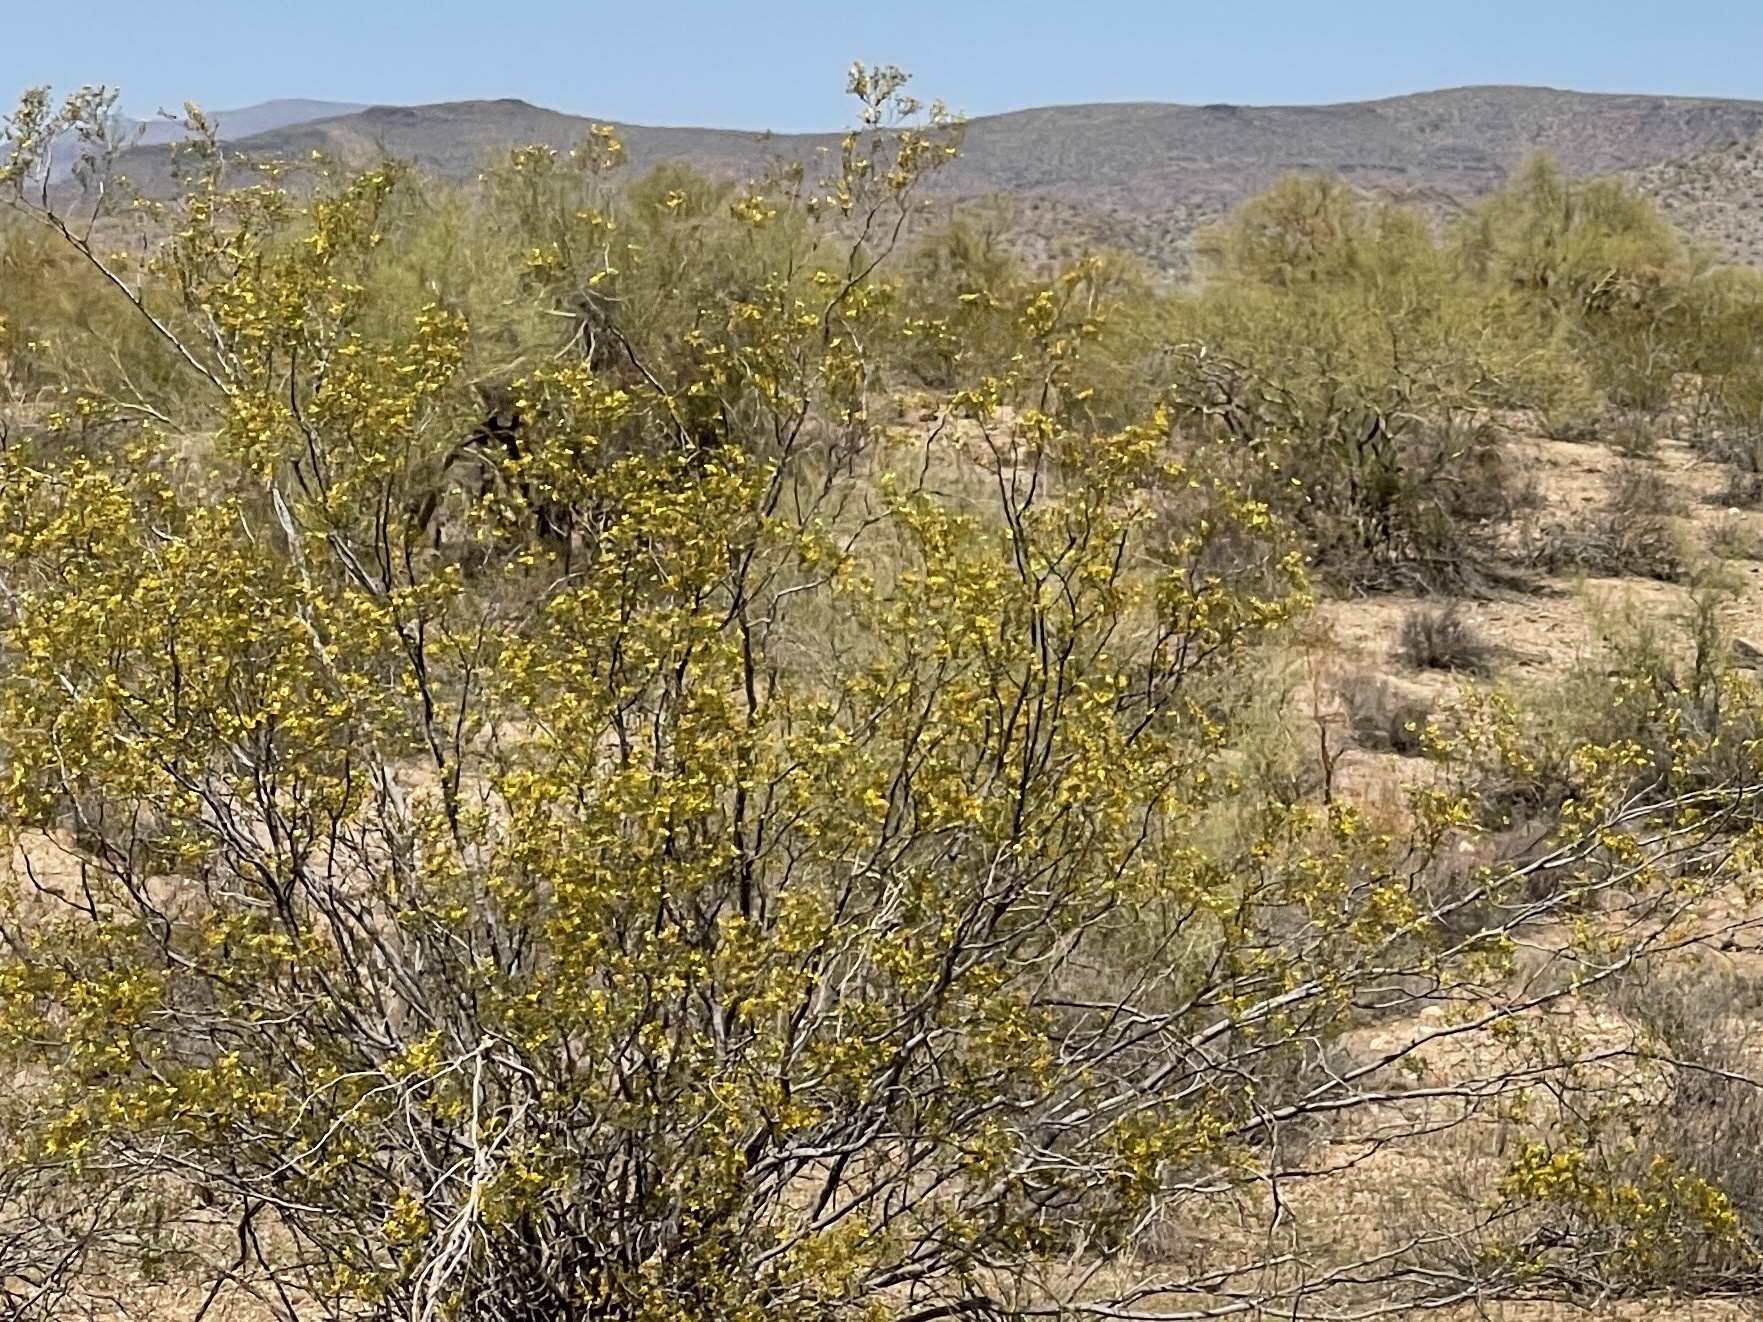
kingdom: Plantae
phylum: Tracheophyta
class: Magnoliopsida
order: Zygophyllales
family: Zygophyllaceae
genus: Larrea
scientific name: Larrea tridentata
